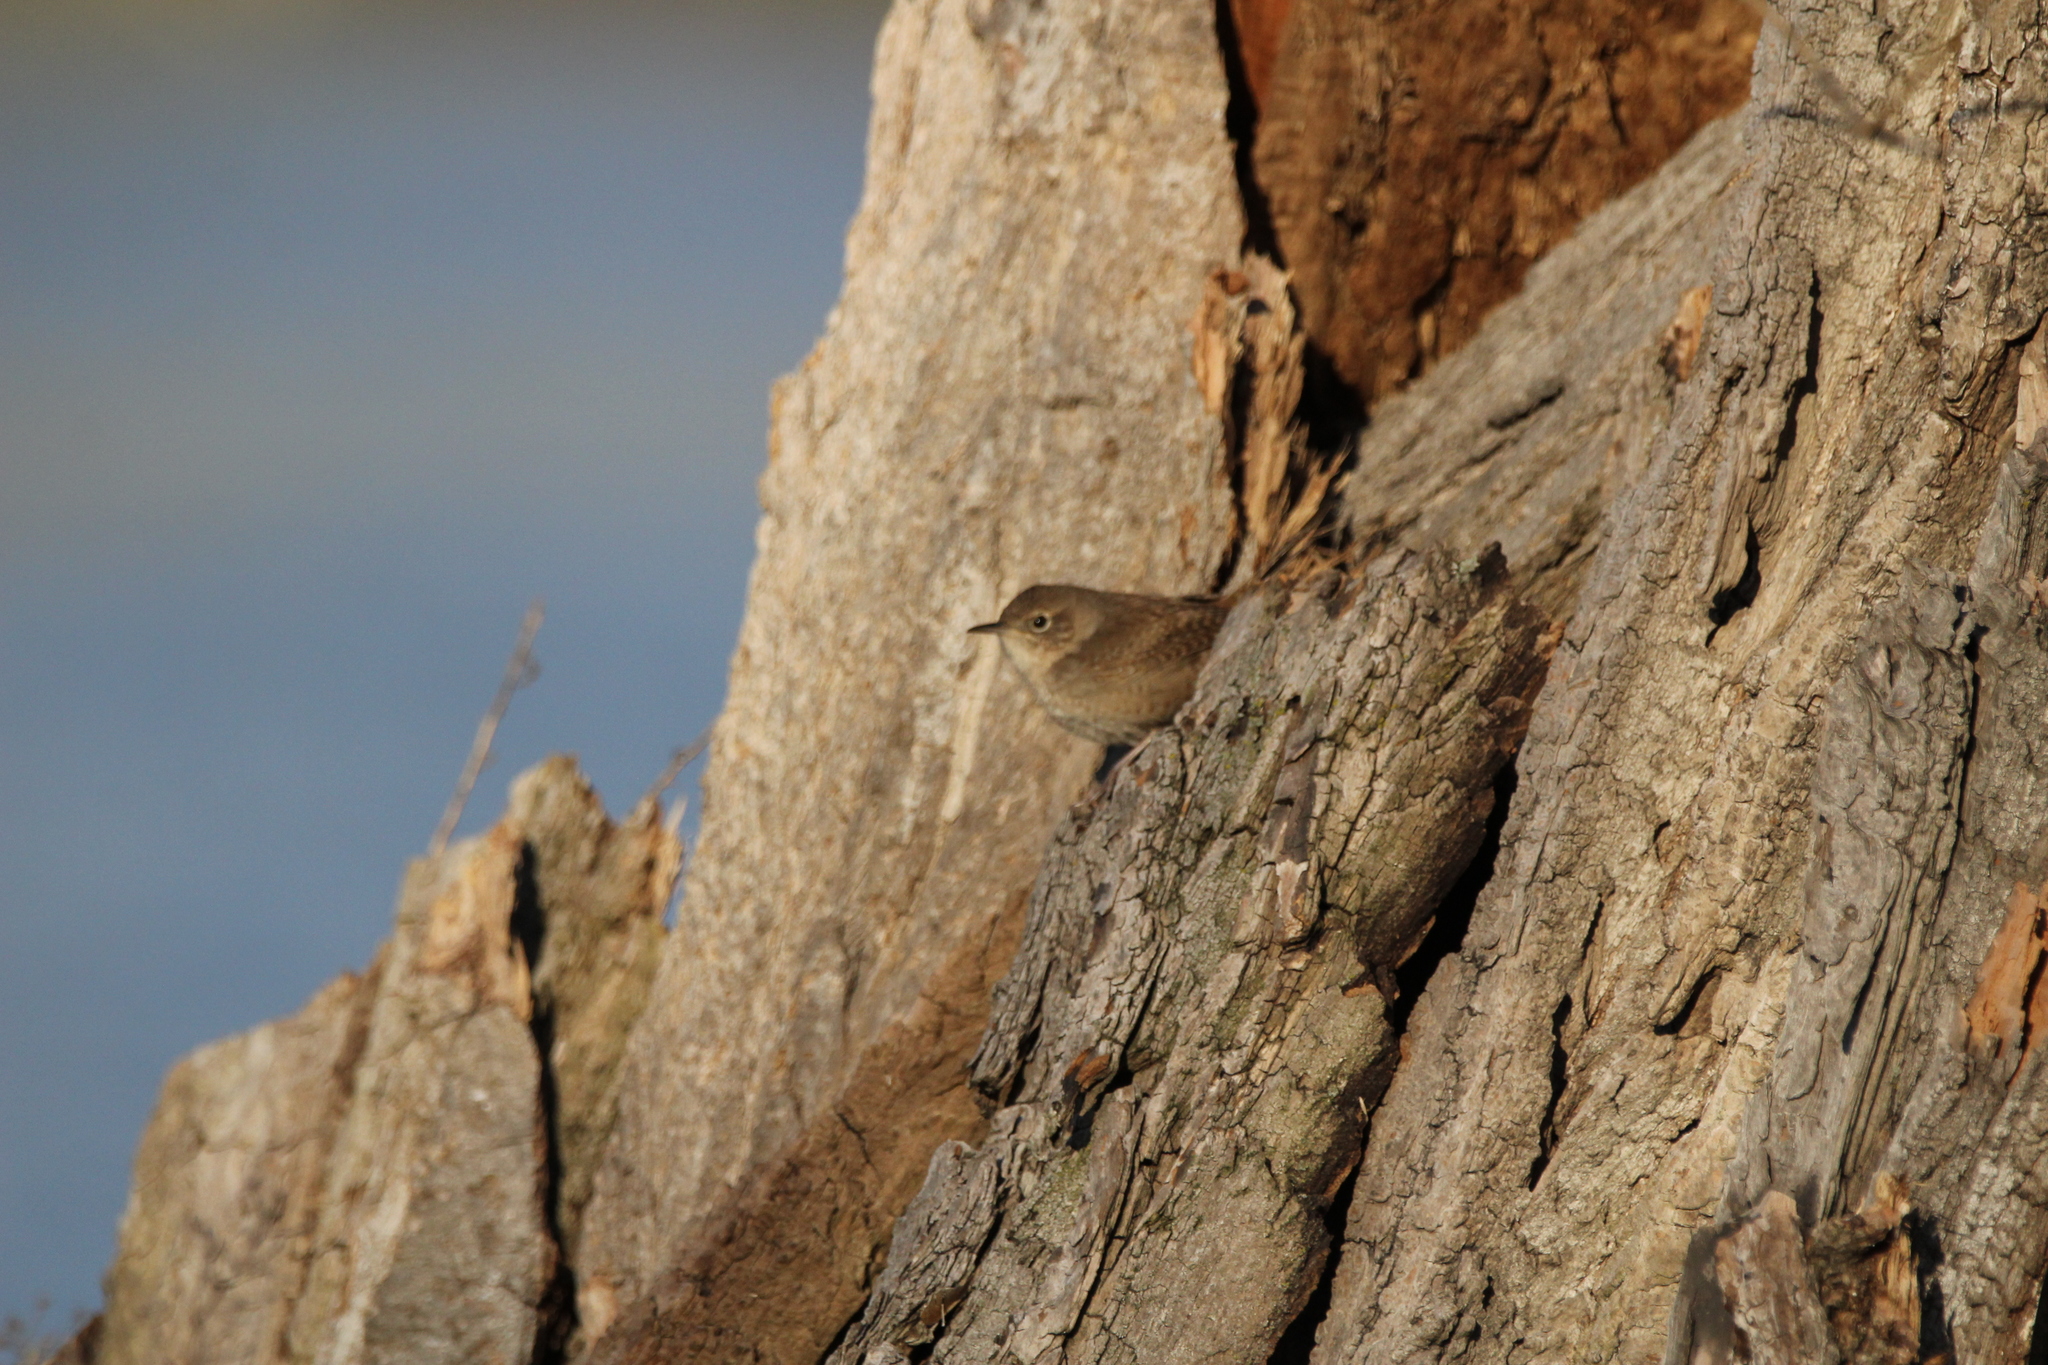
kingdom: Animalia
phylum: Chordata
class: Aves
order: Passeriformes
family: Troglodytidae
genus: Troglodytes
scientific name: Troglodytes aedon
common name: House wren
